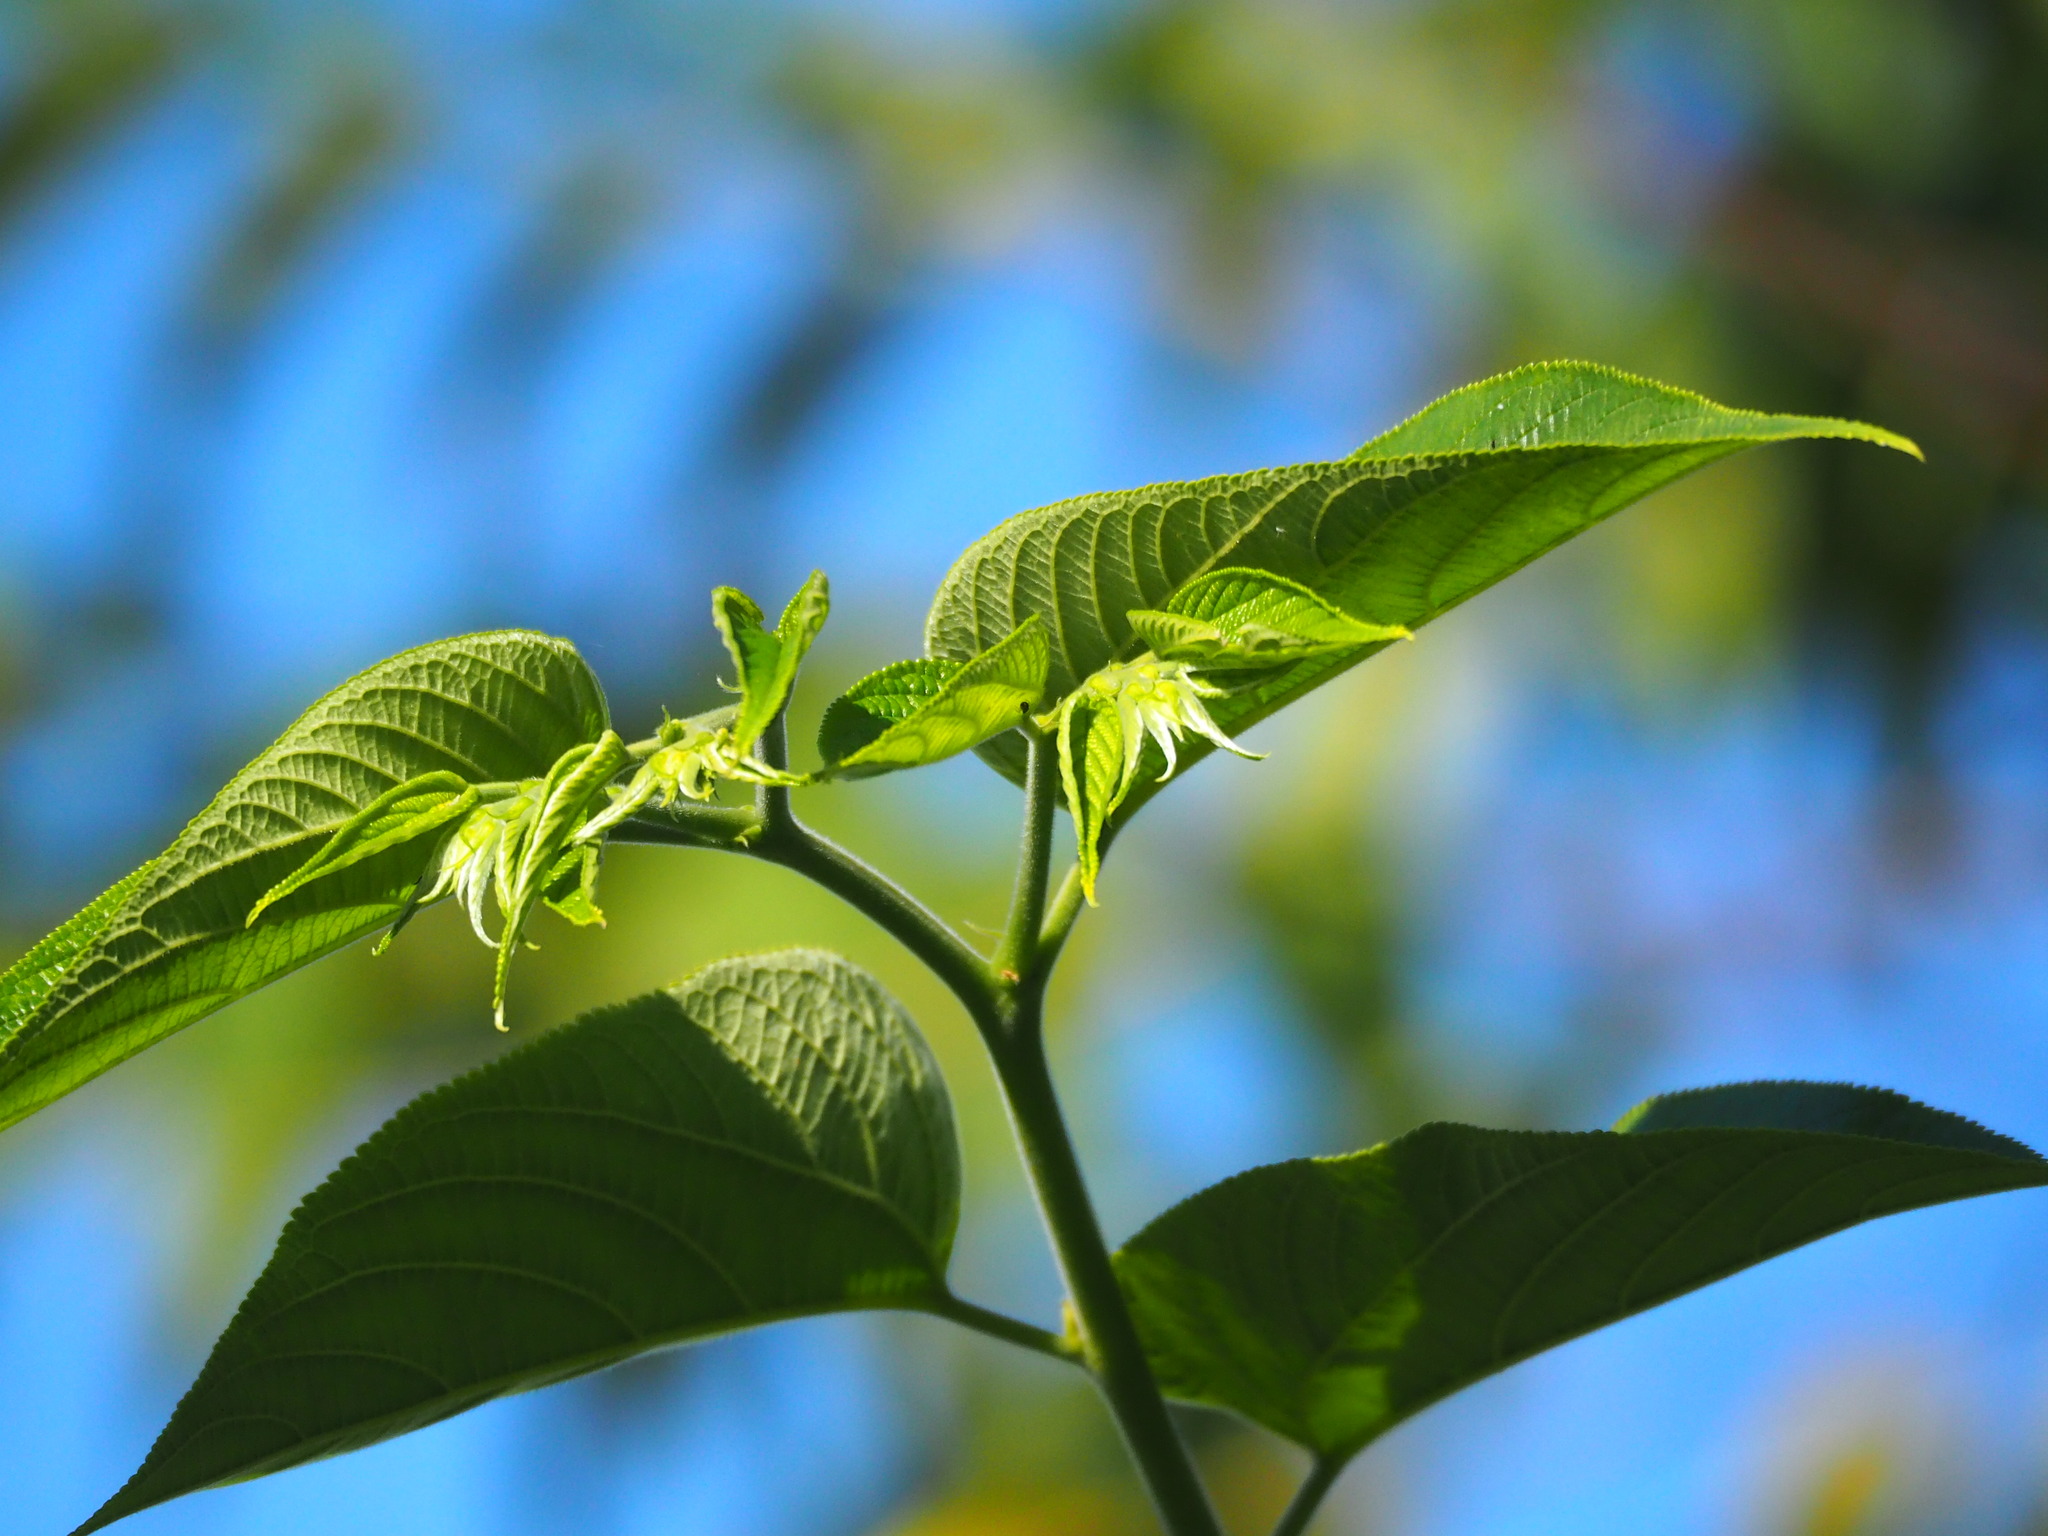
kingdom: Plantae
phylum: Tracheophyta
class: Magnoliopsida
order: Rosales
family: Cannabaceae
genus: Trema
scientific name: Trema orientale
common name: Indian charcoal tree
